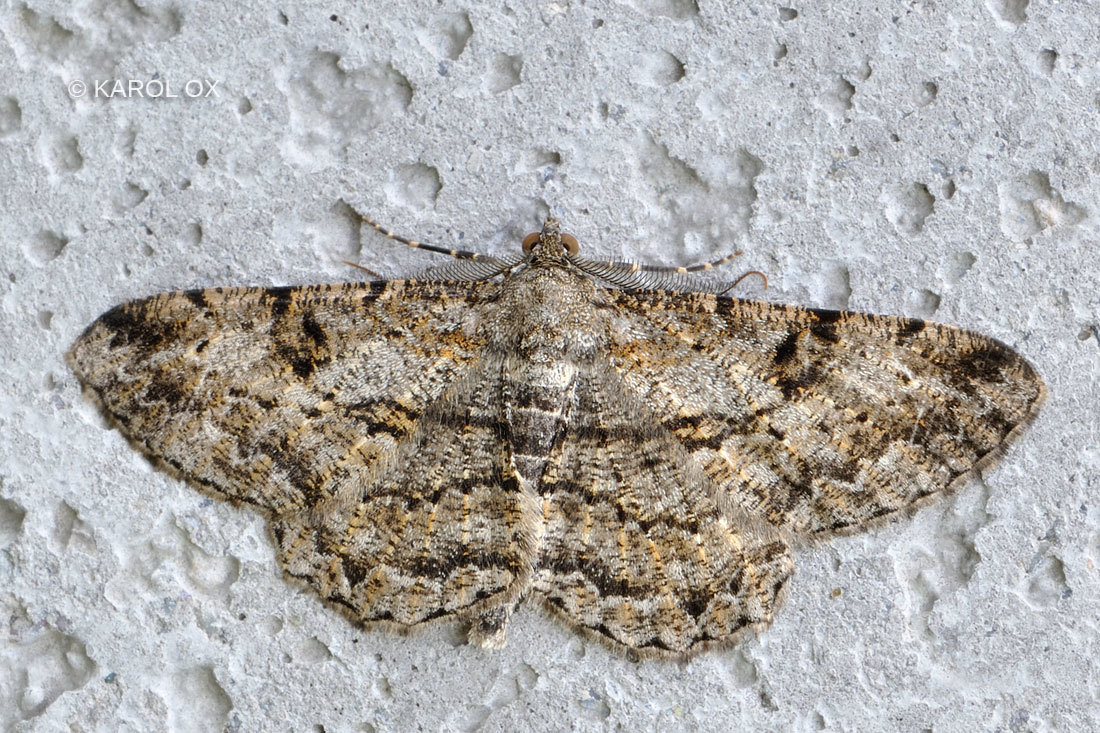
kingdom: Animalia
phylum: Arthropoda
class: Insecta
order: Lepidoptera
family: Geometridae
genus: Peribatodes
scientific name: Peribatodes rhomboidaria
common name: Willow beauty
